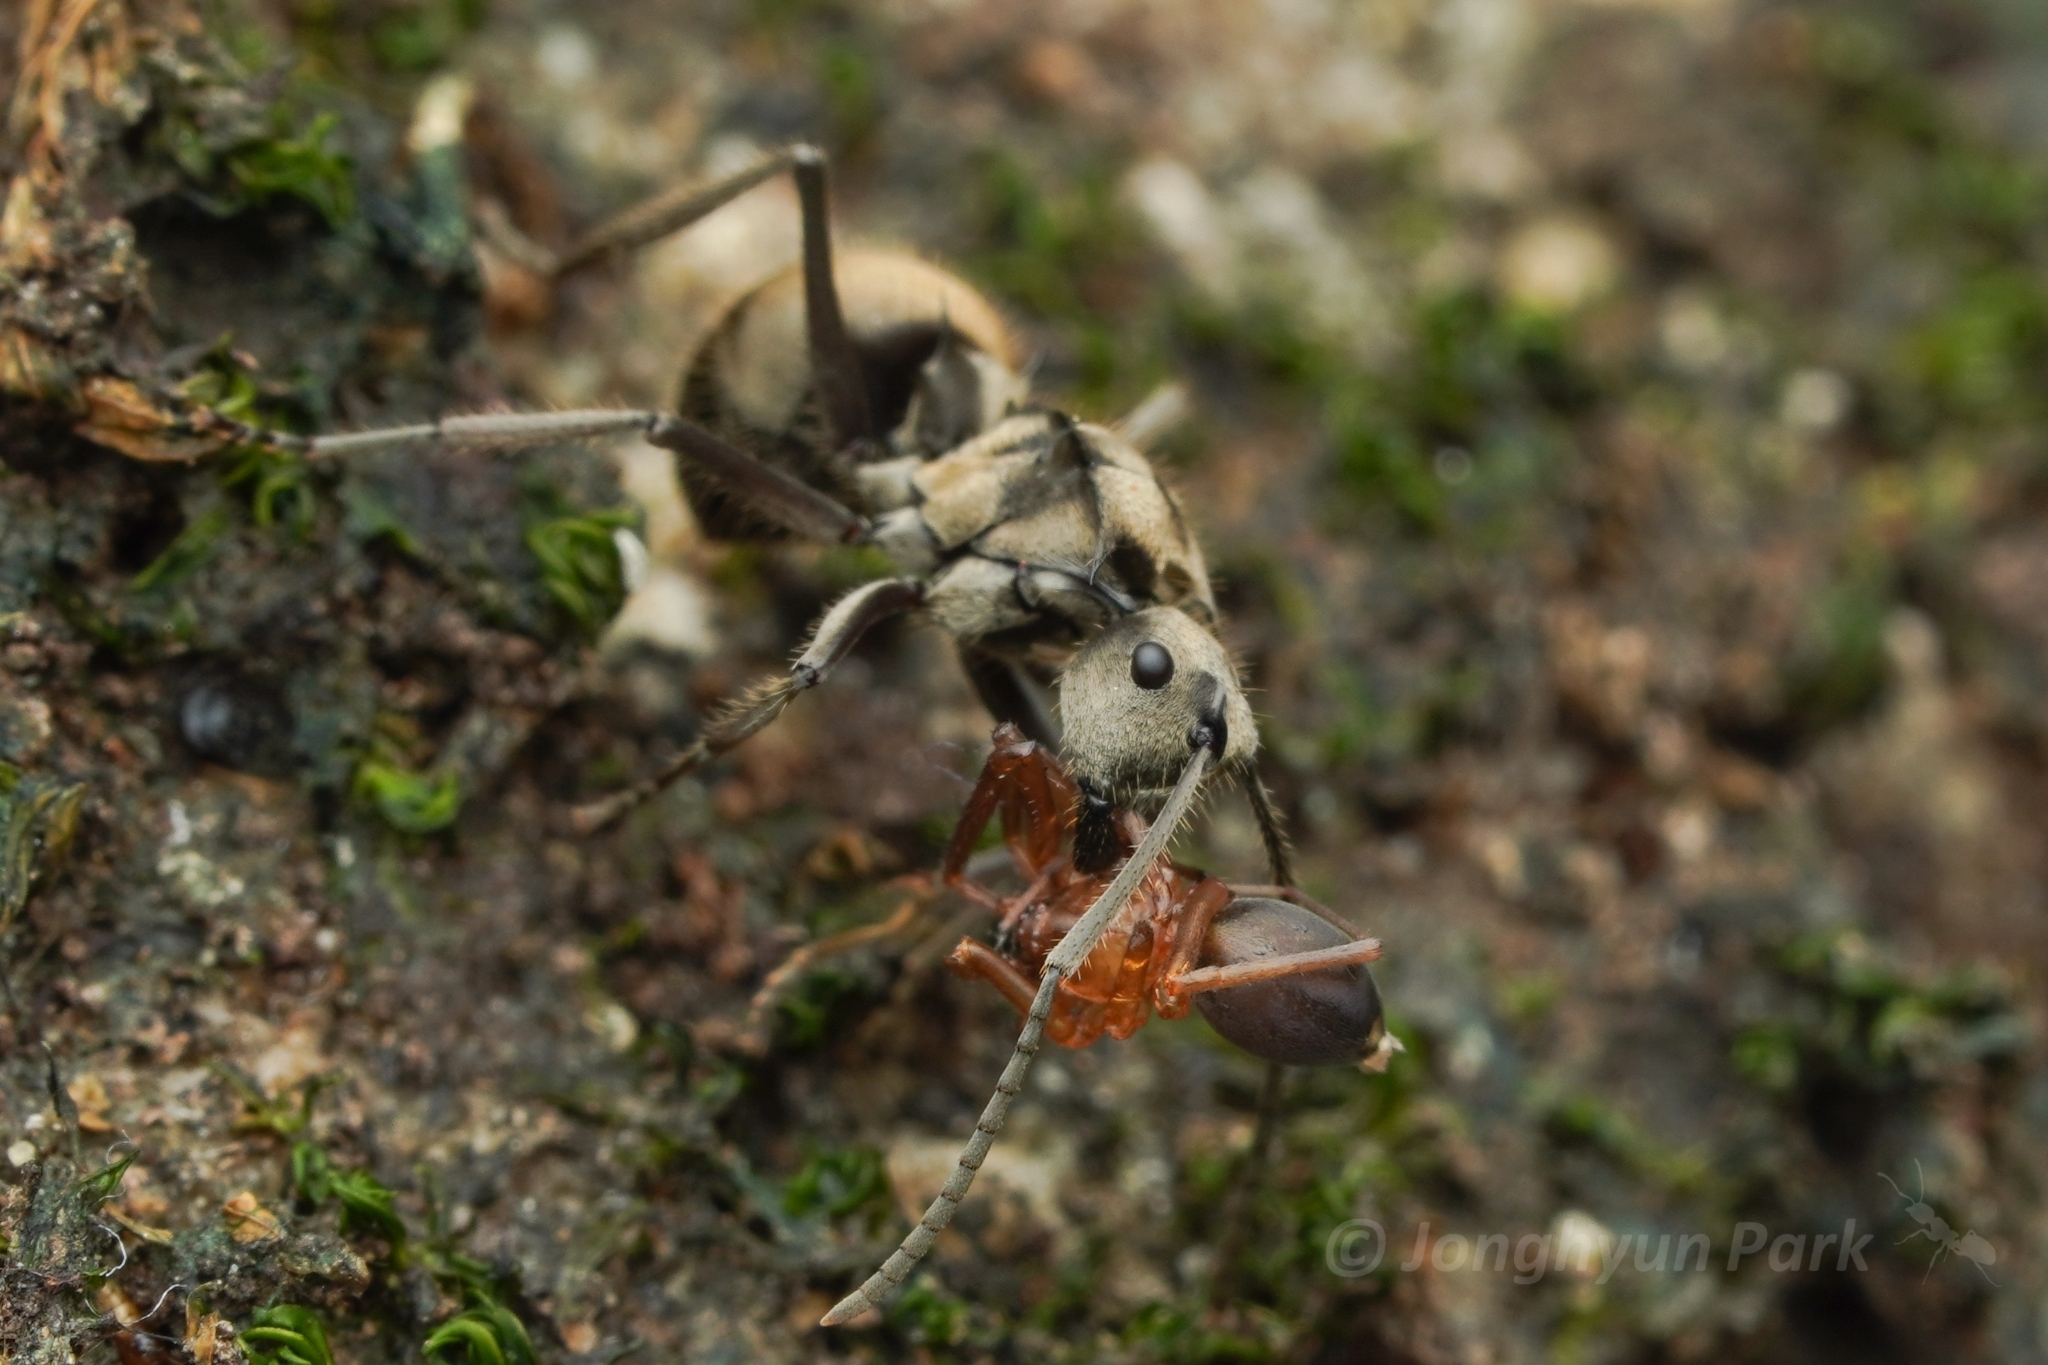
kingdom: Animalia
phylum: Arthropoda
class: Insecta
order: Hymenoptera
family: Formicidae
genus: Polyrhachis
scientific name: Polyrhachis illaudata
